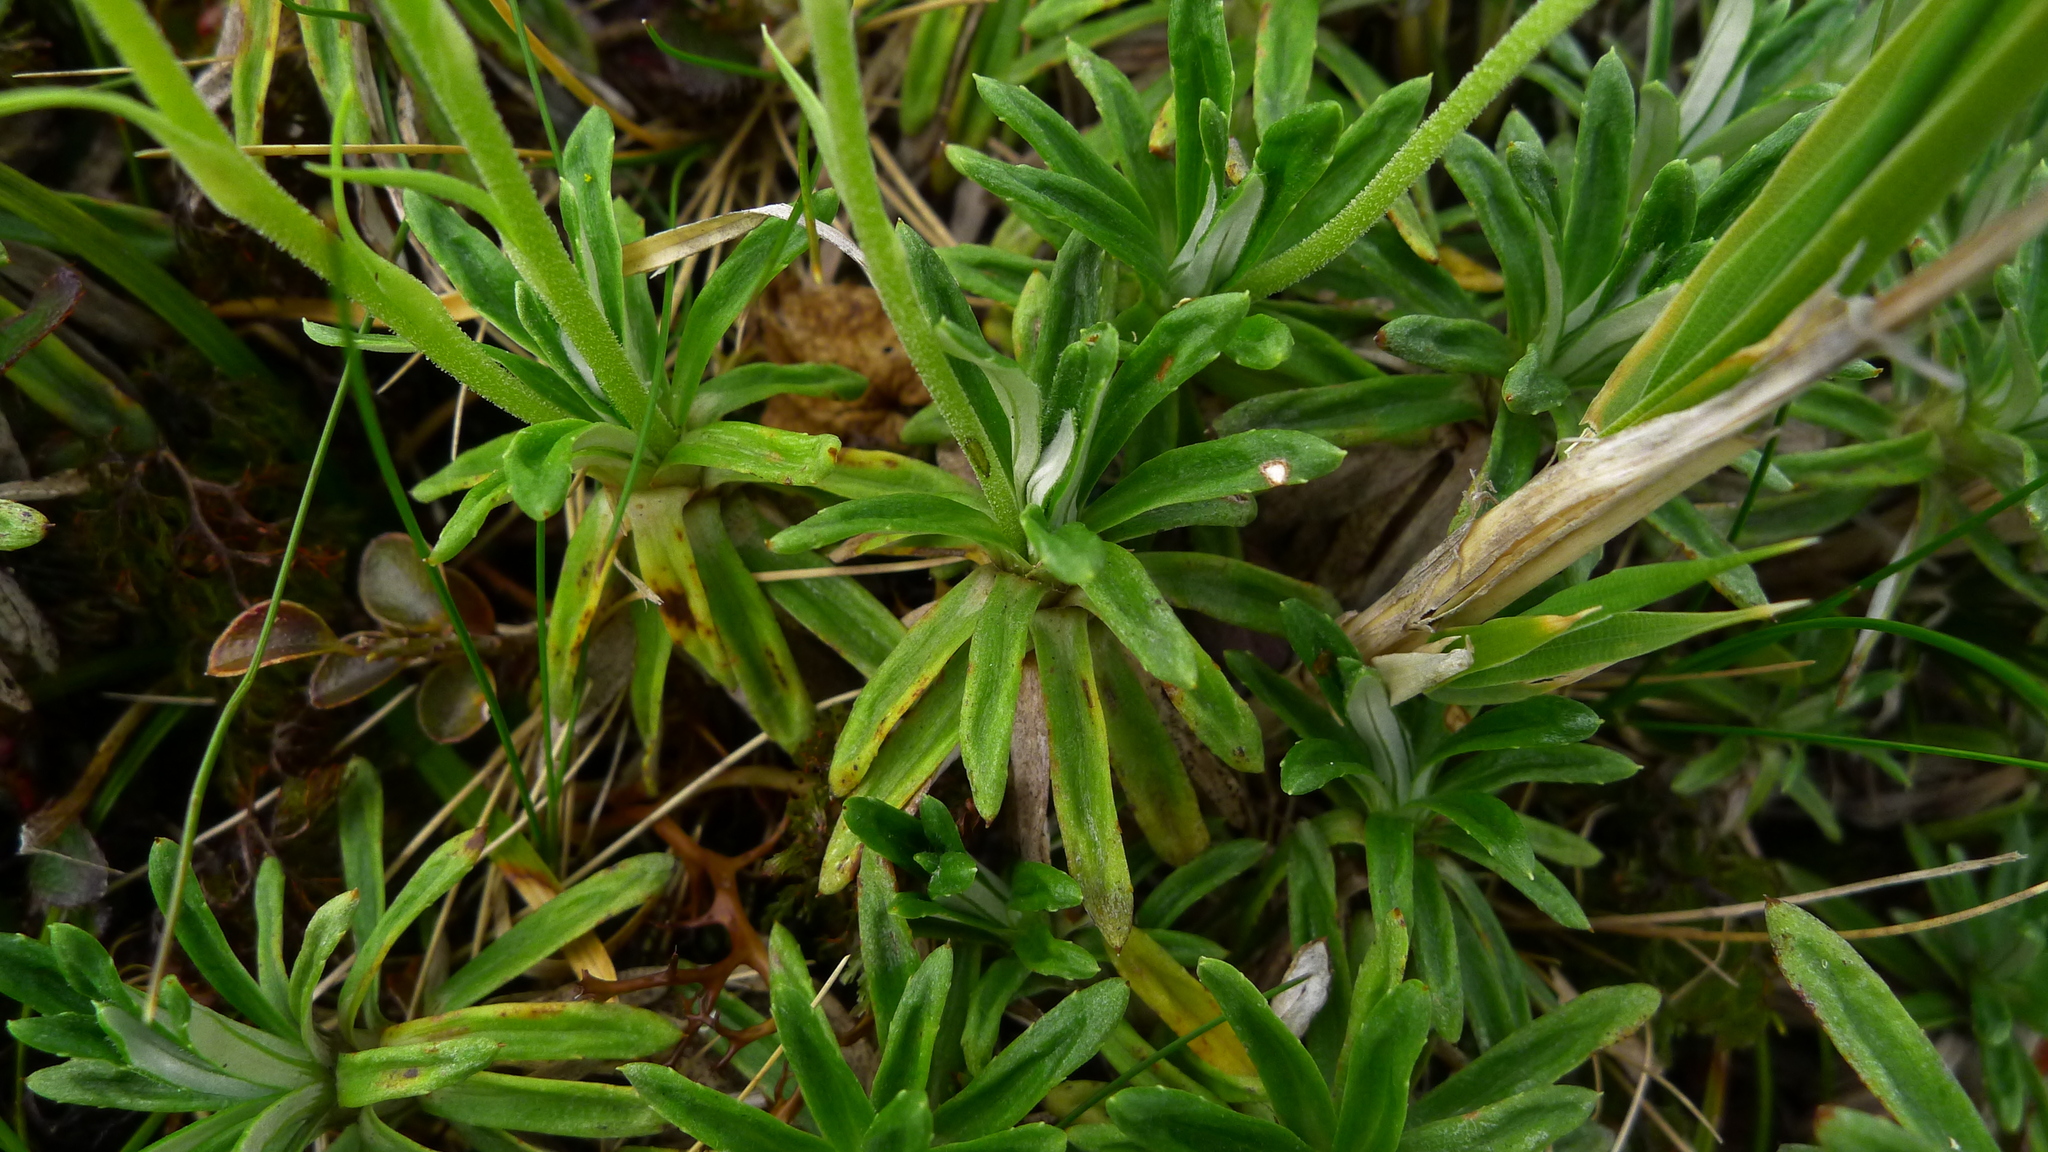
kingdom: Plantae
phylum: Tracheophyta
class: Magnoliopsida
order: Asterales
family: Asteraceae
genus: Celmisia
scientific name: Celmisia walkeri
